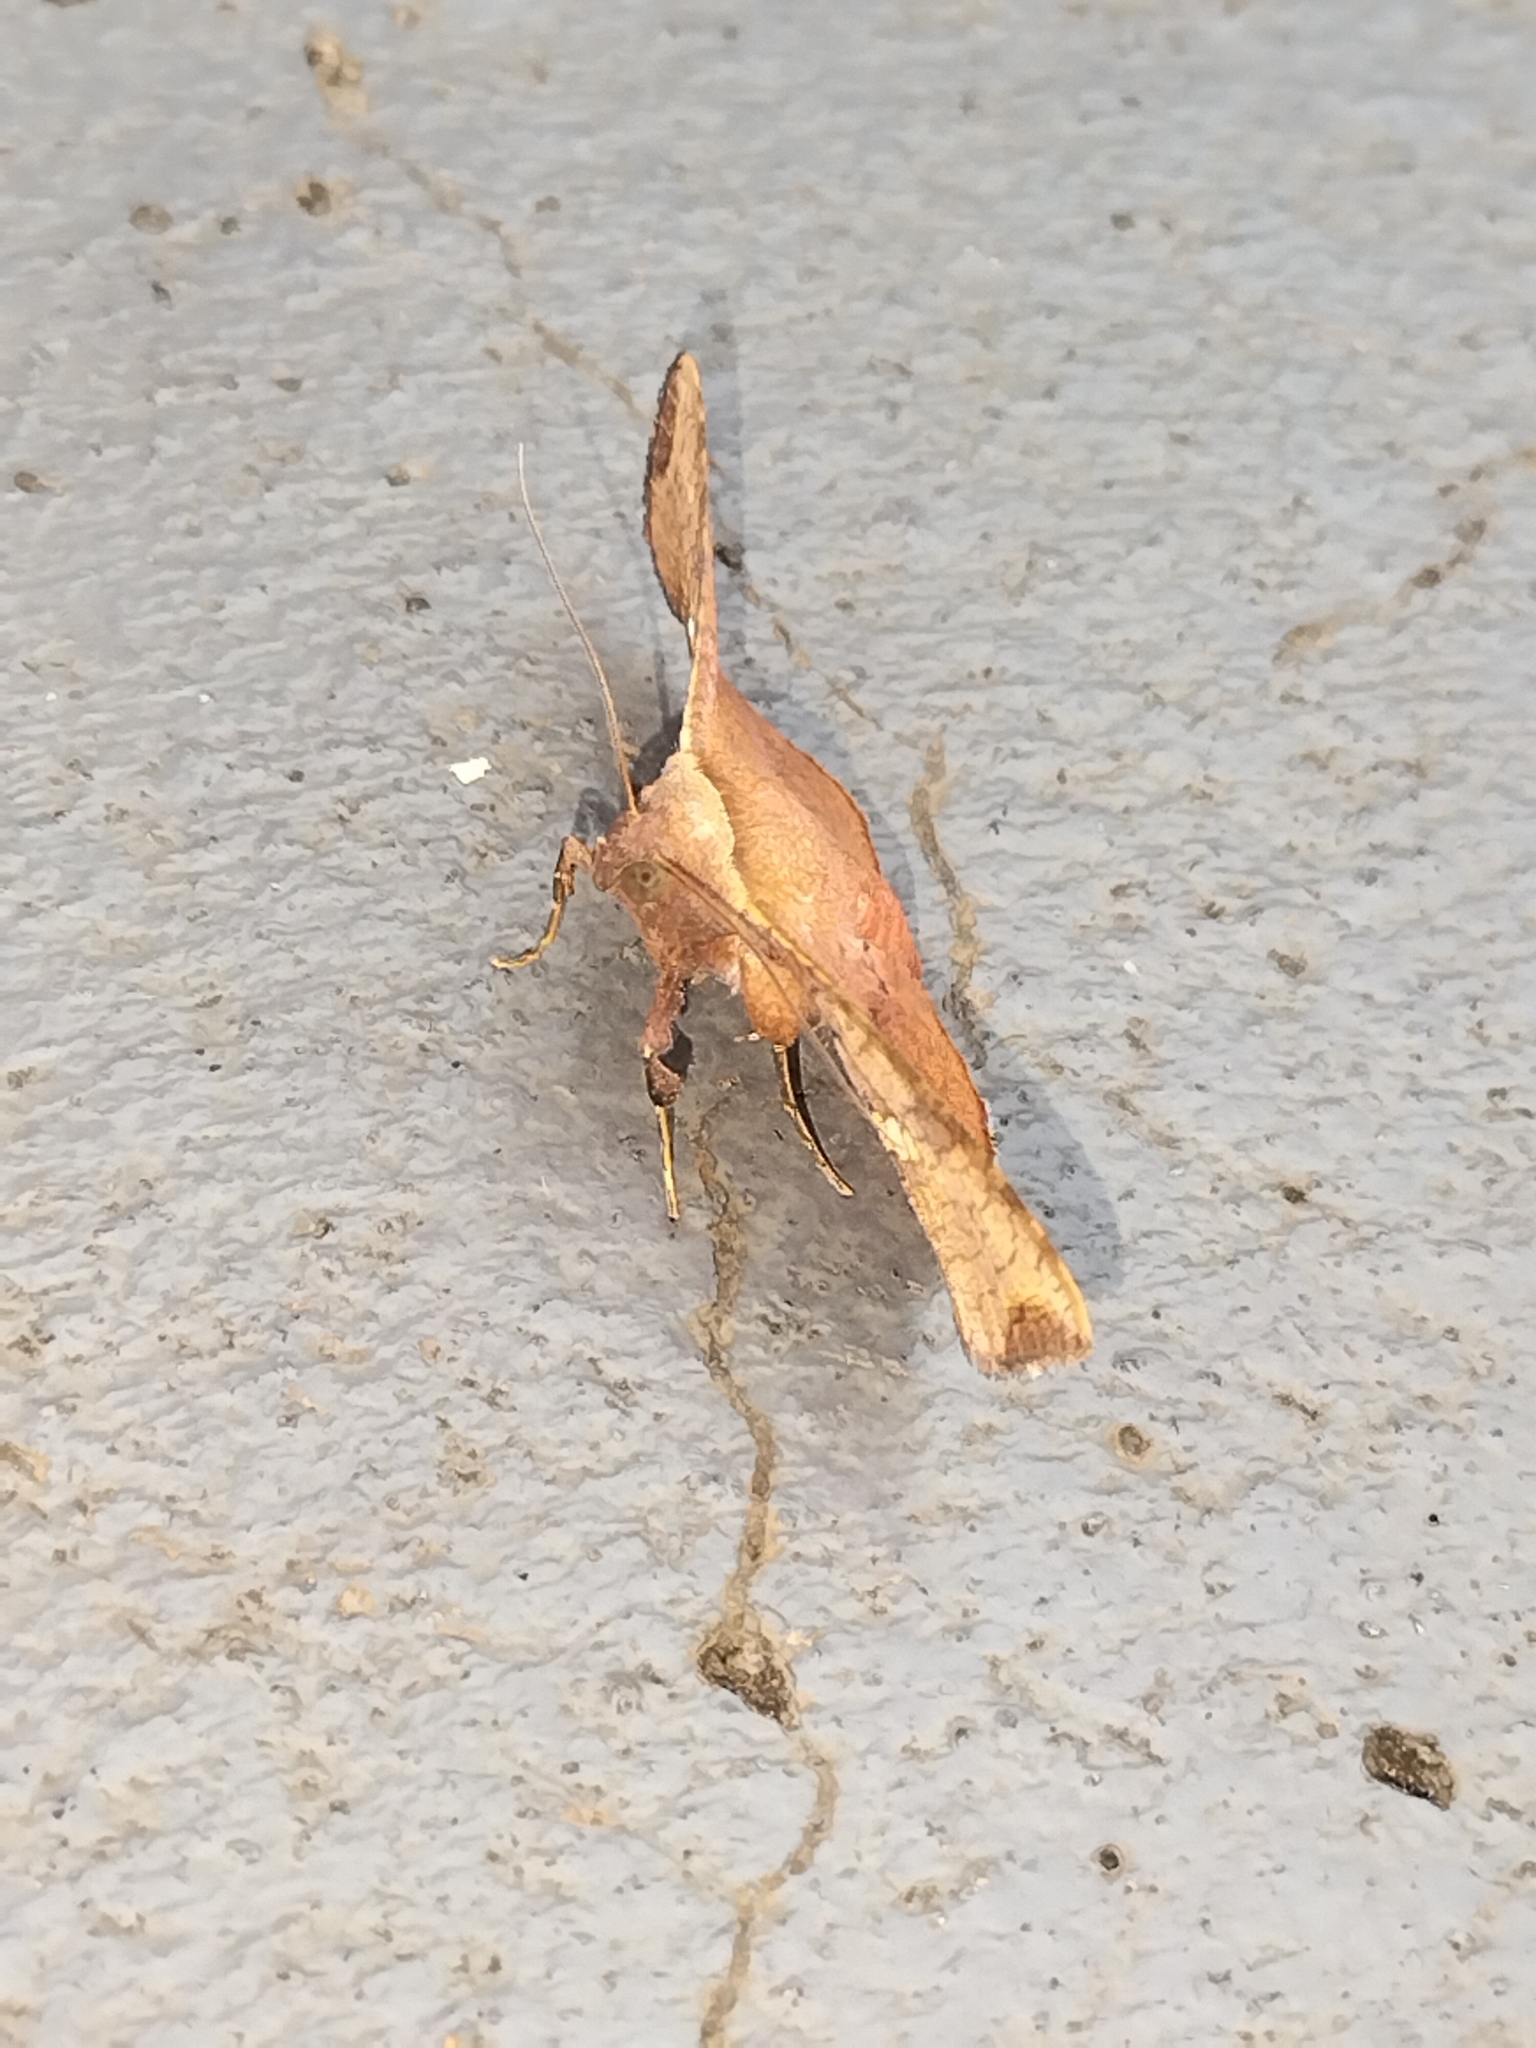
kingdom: Animalia
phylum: Arthropoda
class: Insecta
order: Lepidoptera
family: Thyrididae
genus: Banisia
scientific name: Banisia fenestrifera
